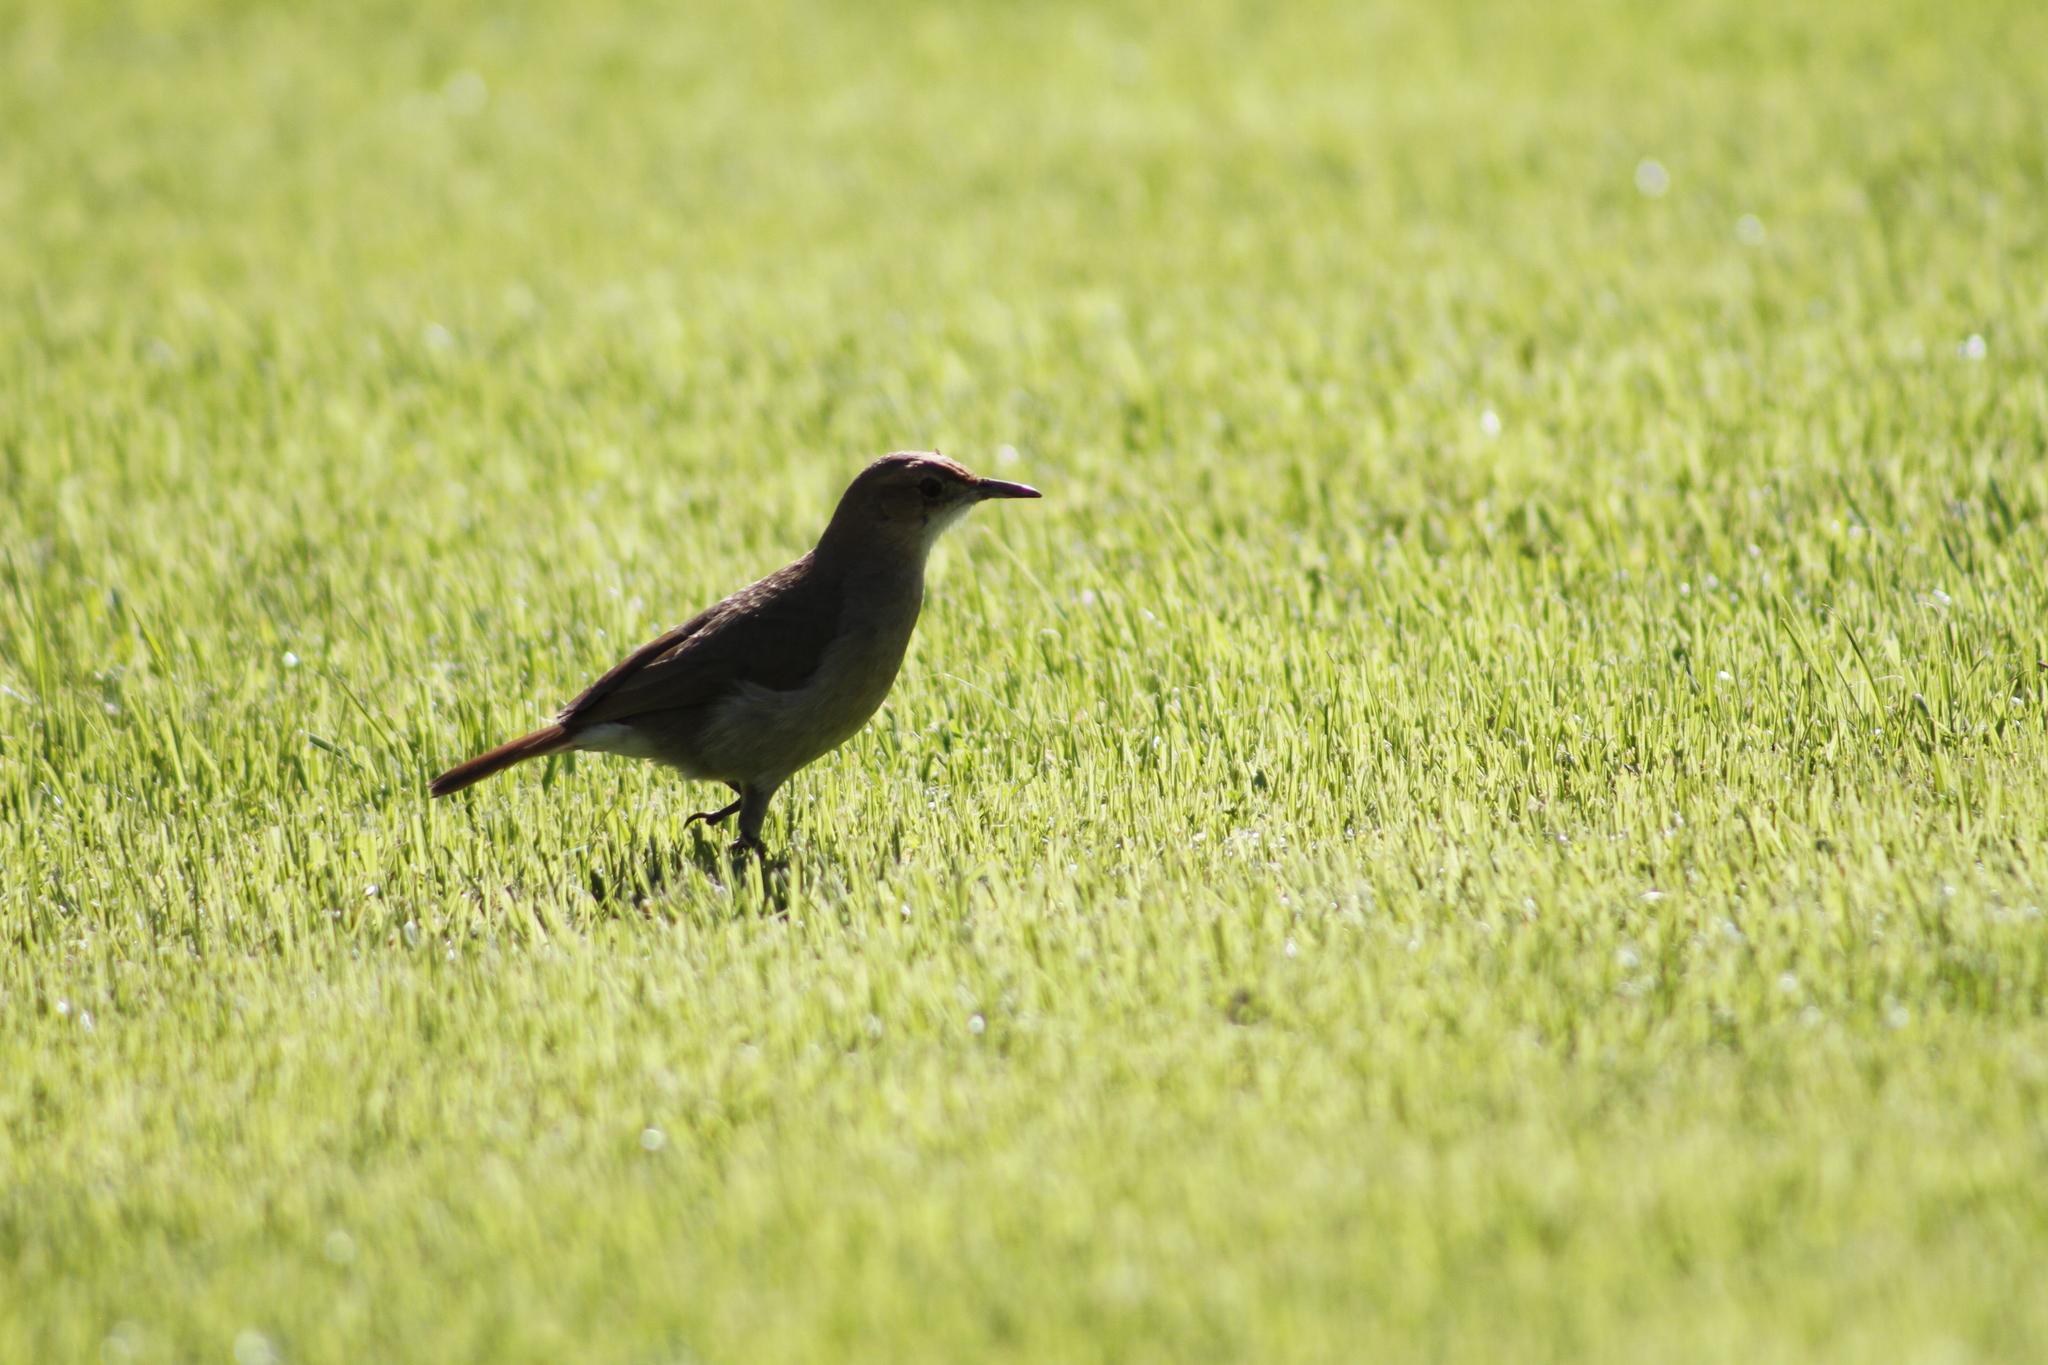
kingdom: Animalia
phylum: Chordata
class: Aves
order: Passeriformes
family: Furnariidae
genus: Furnarius
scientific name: Furnarius rufus
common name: Rufous hornero
